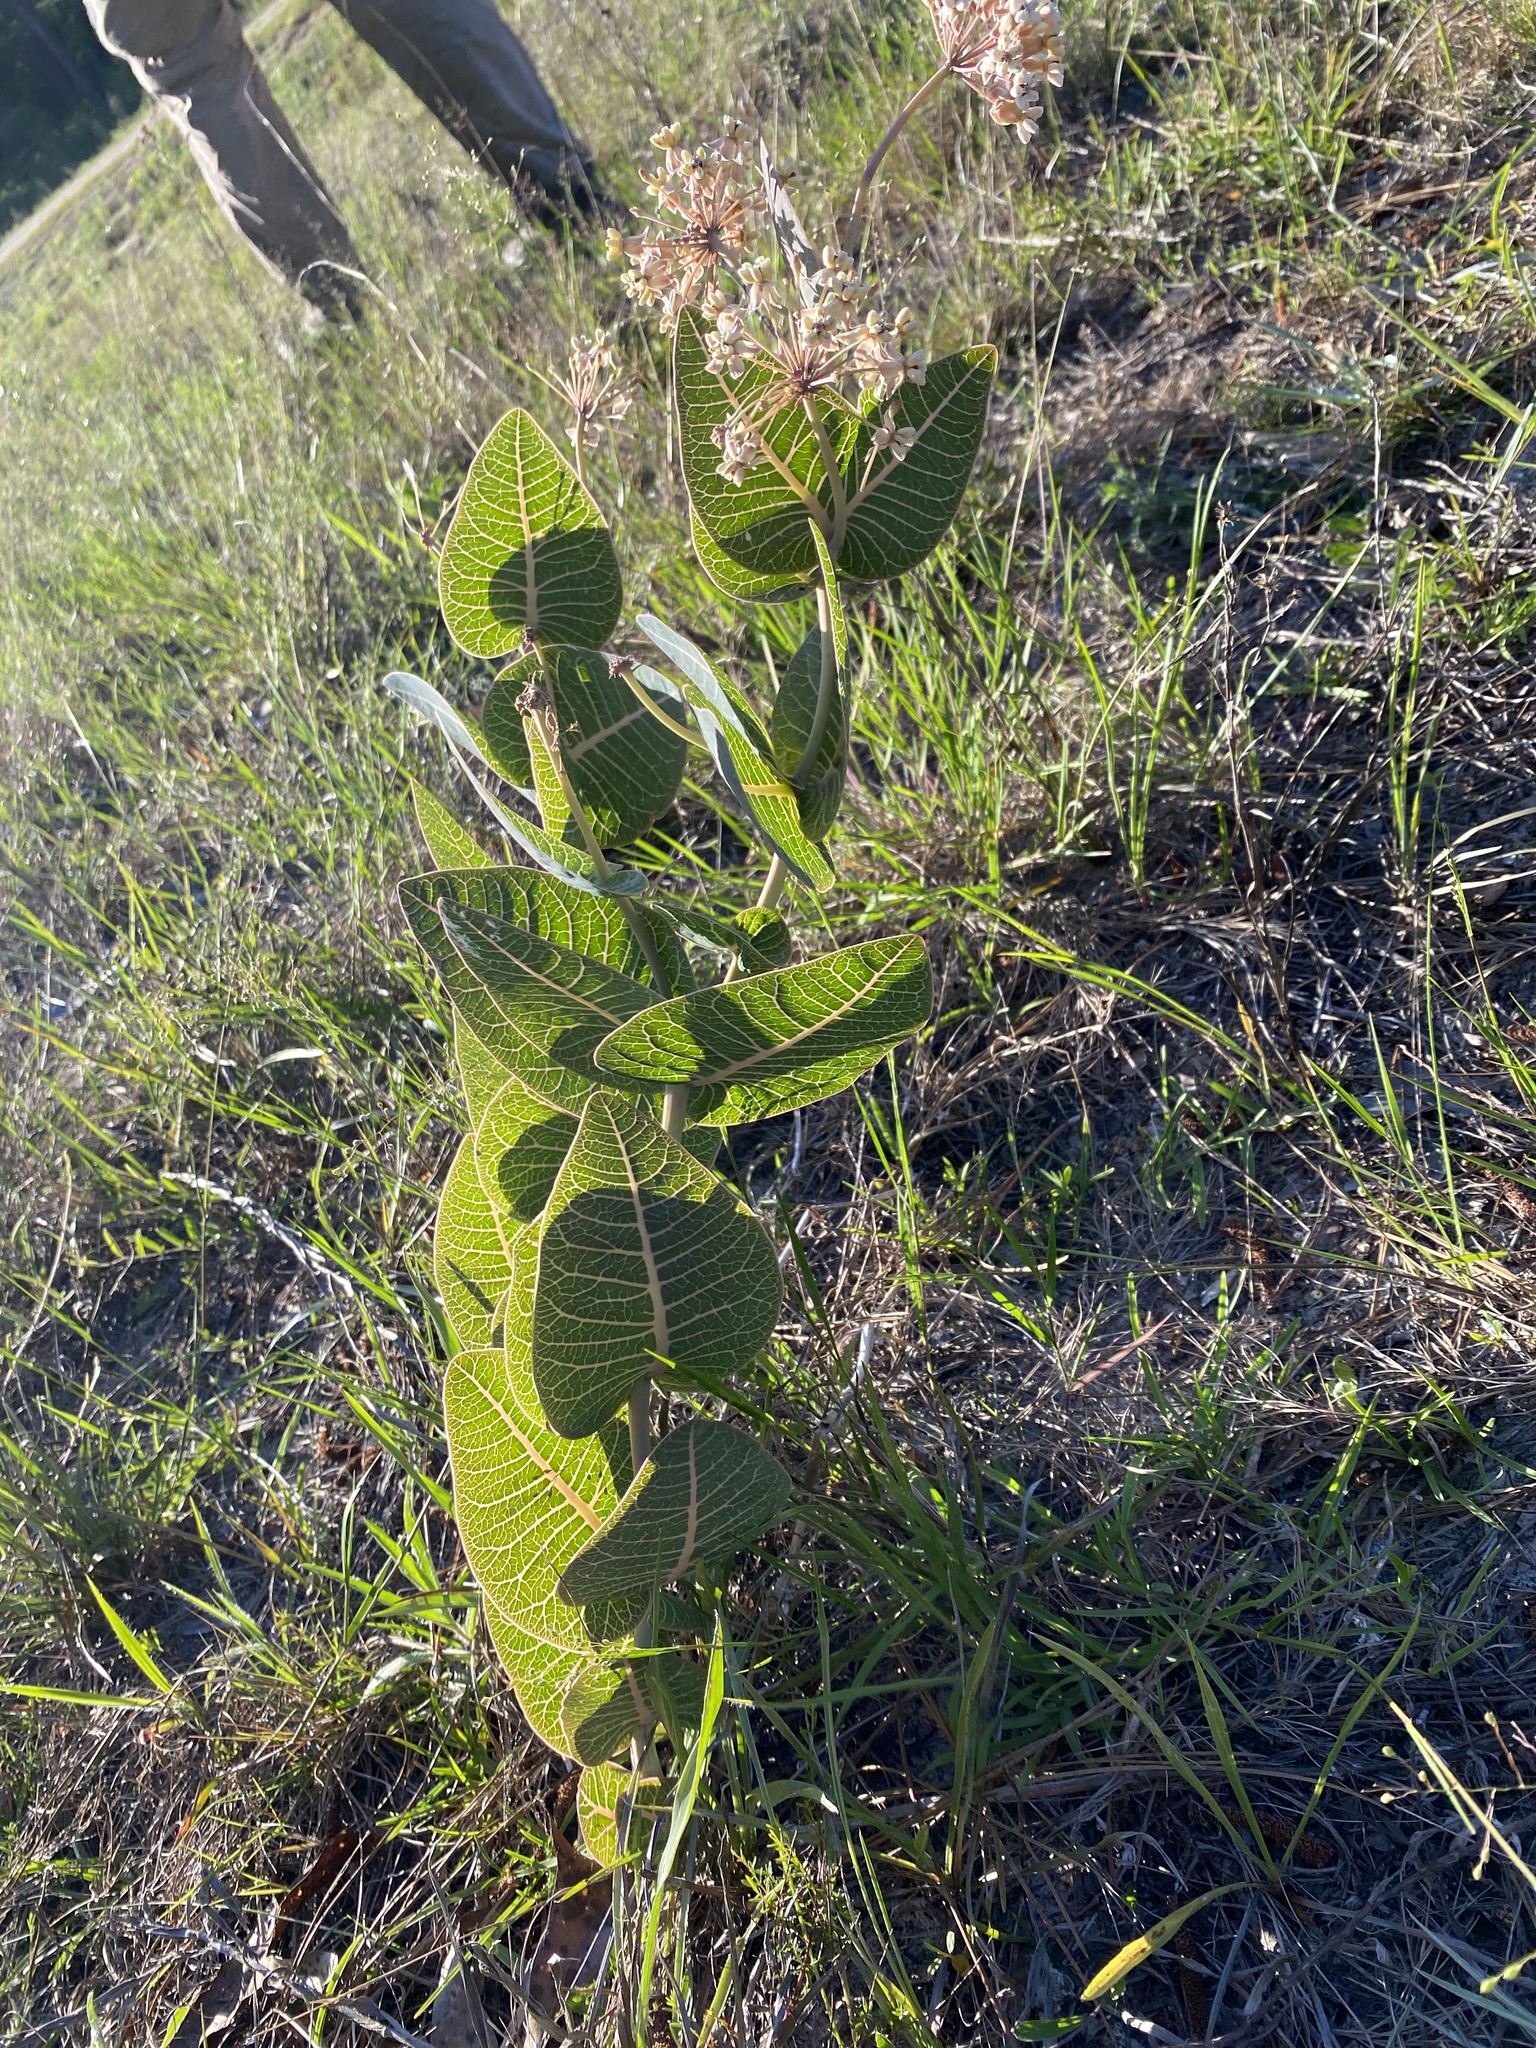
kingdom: Plantae
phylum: Tracheophyta
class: Magnoliopsida
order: Gentianales
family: Apocynaceae
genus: Asclepias
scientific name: Asclepias humistrata
